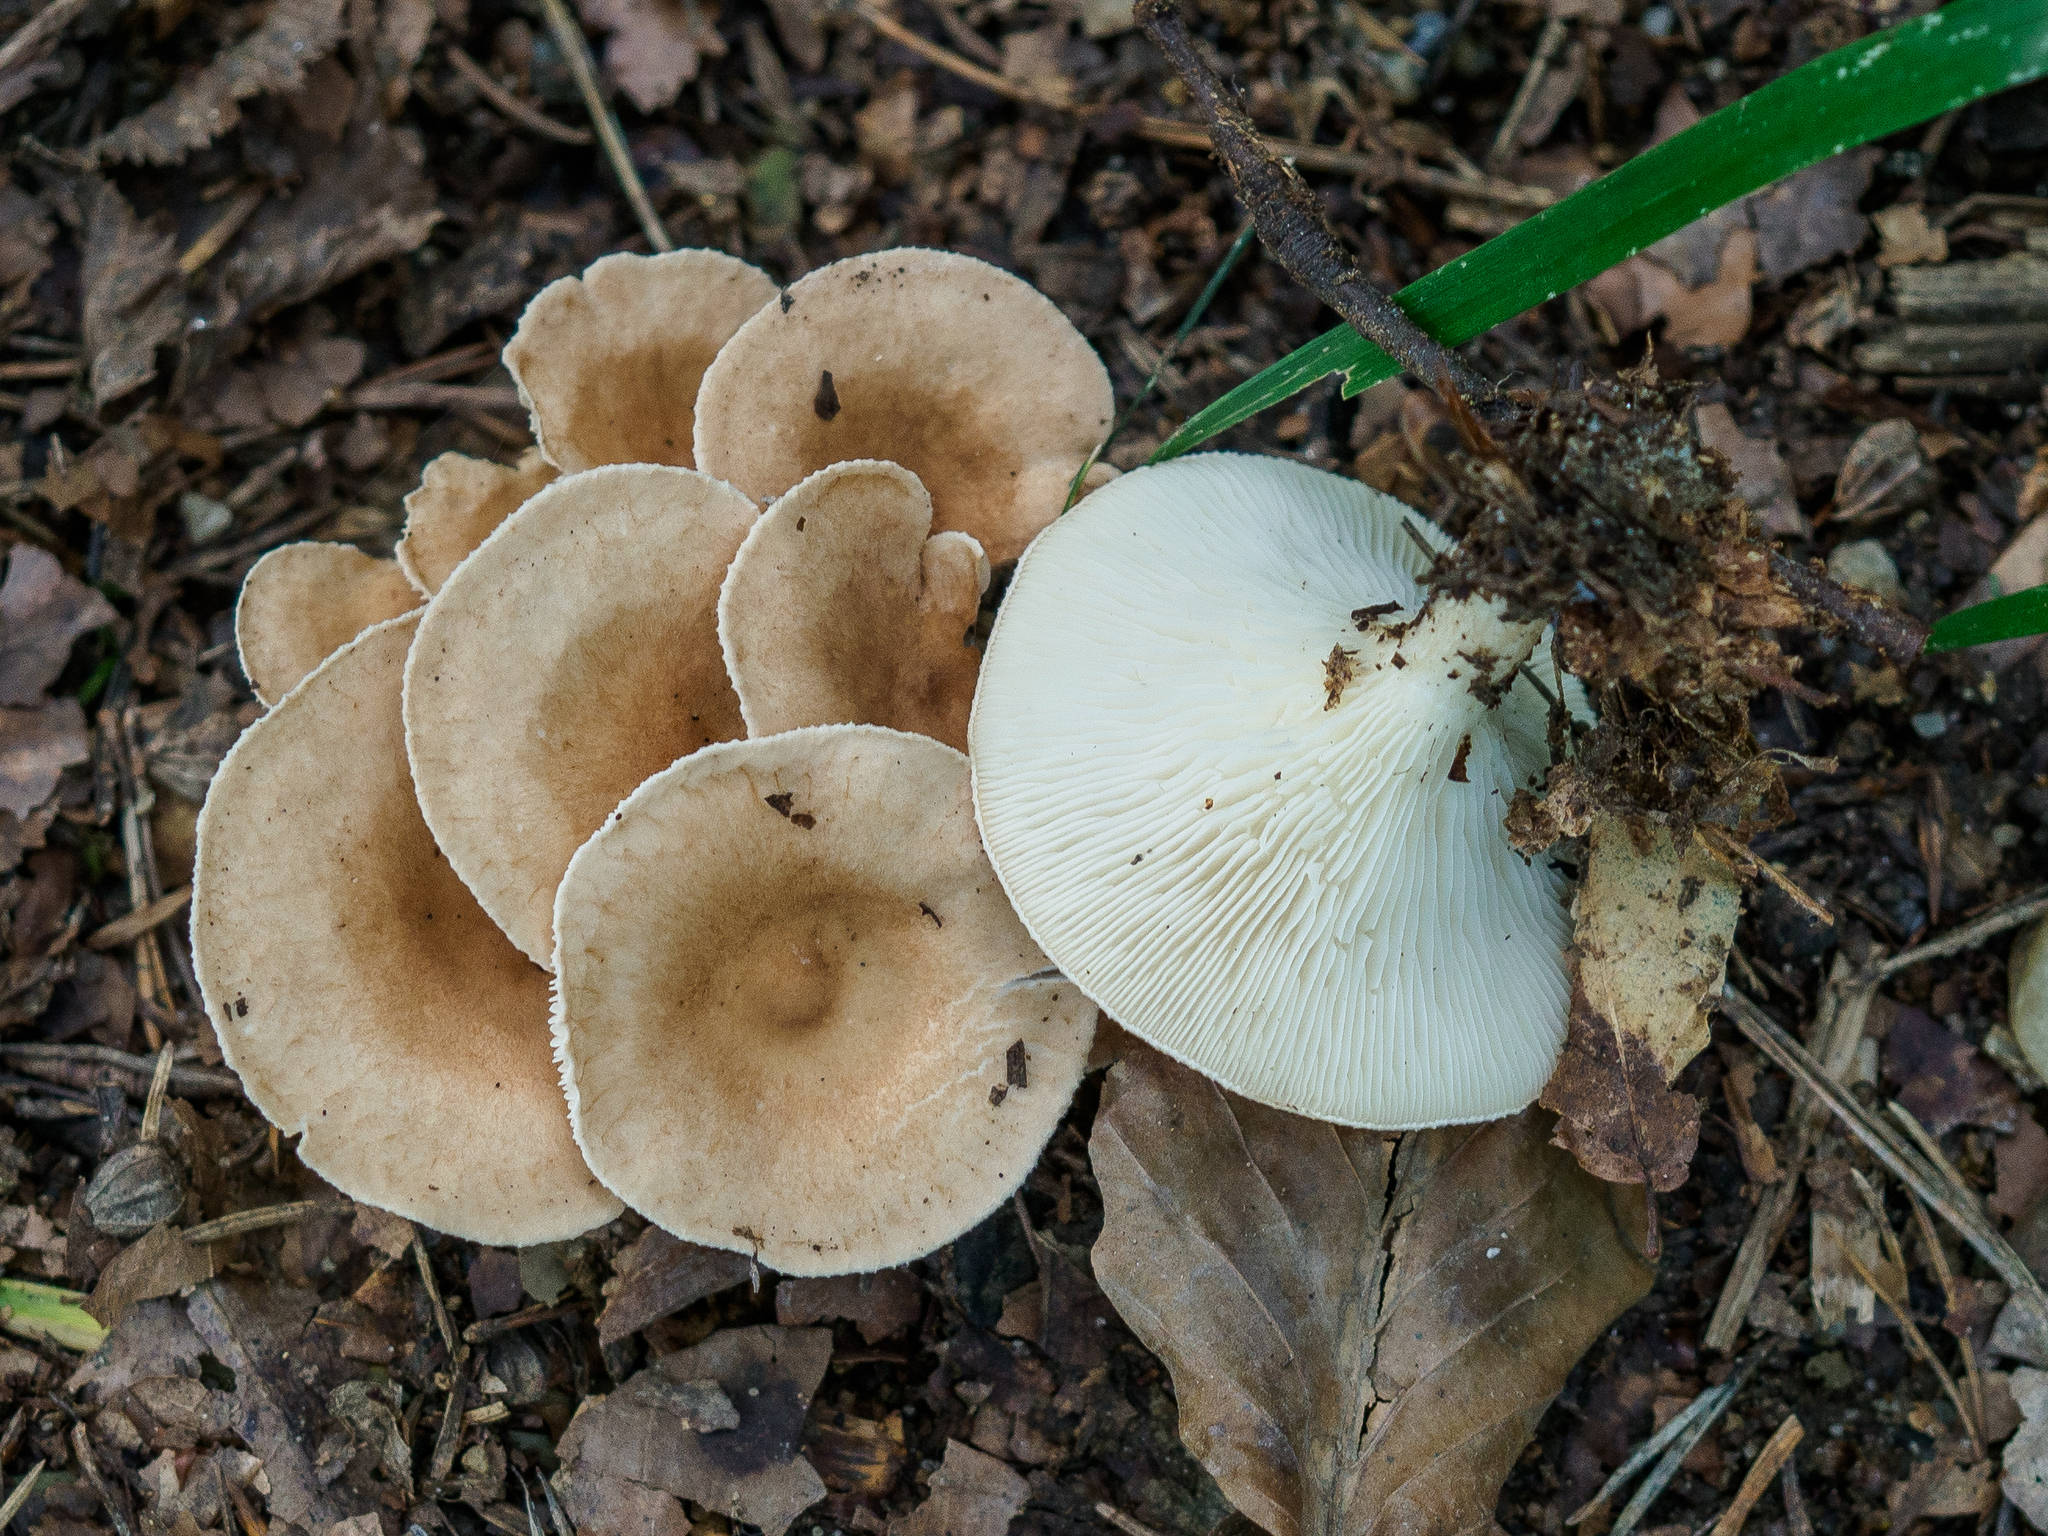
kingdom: Fungi
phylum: Basidiomycota
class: Agaricomycetes
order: Agaricales
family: Tricholomataceae
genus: Infundibulicybe
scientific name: Infundibulicybe gibba
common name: Common funnel
